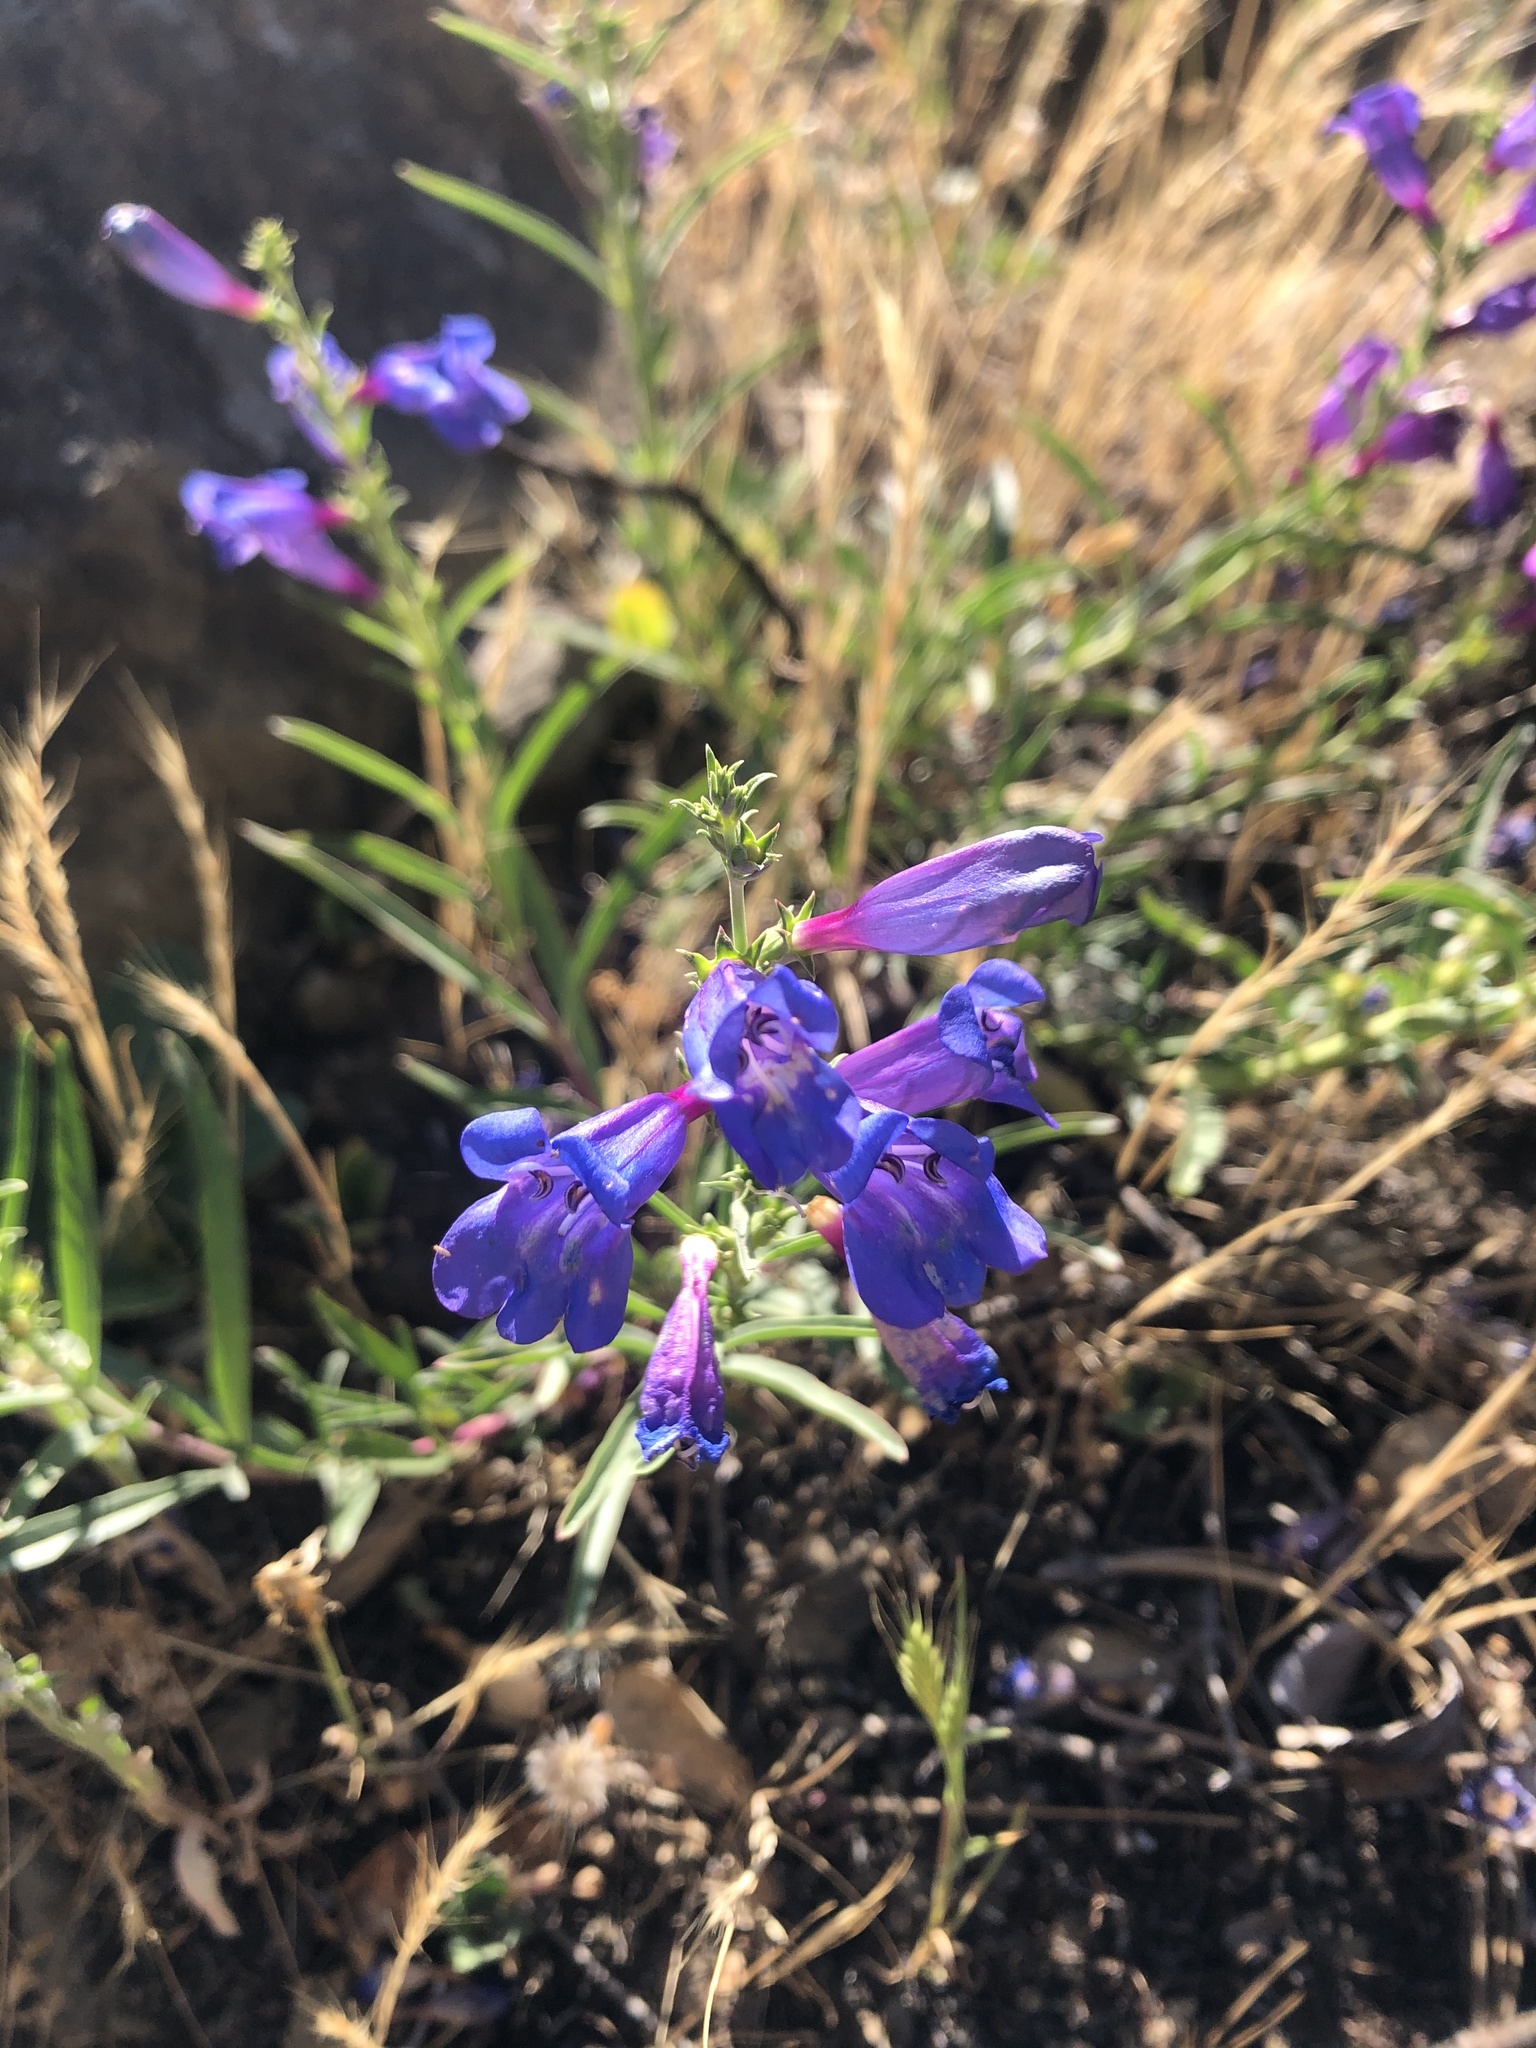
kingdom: Plantae
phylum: Tracheophyta
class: Magnoliopsida
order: Lamiales
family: Plantaginaceae
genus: Penstemon
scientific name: Penstemon heterophyllus
